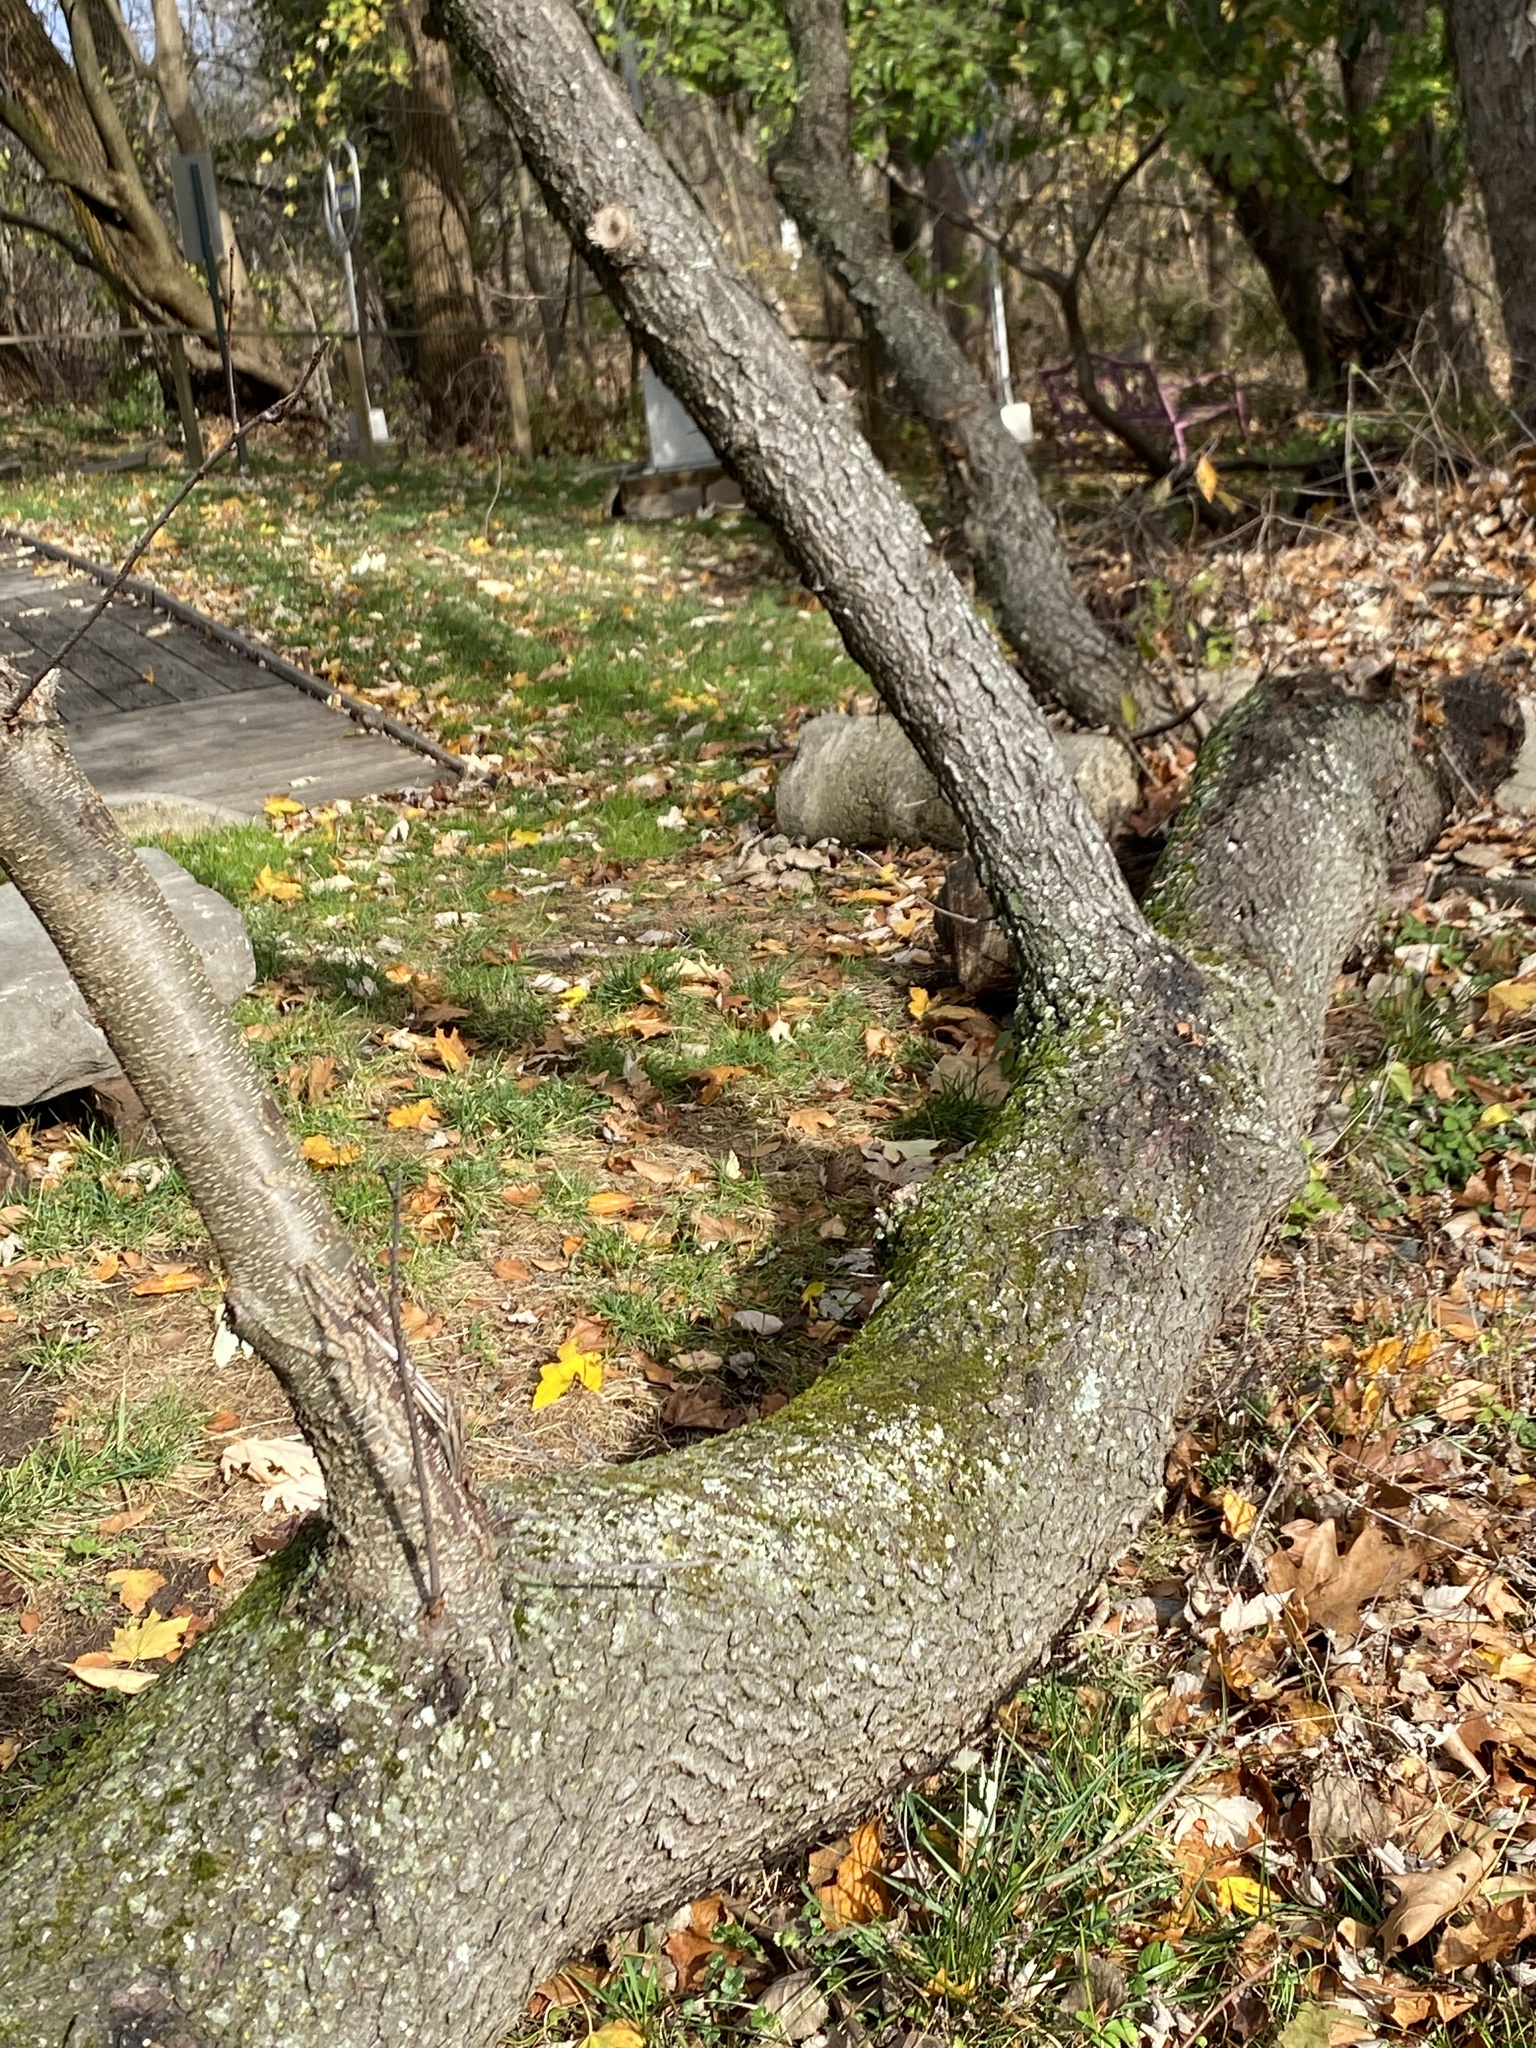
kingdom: Plantae
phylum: Tracheophyta
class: Magnoliopsida
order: Rosales
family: Rosaceae
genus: Prunus
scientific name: Prunus serotina
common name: Black cherry
